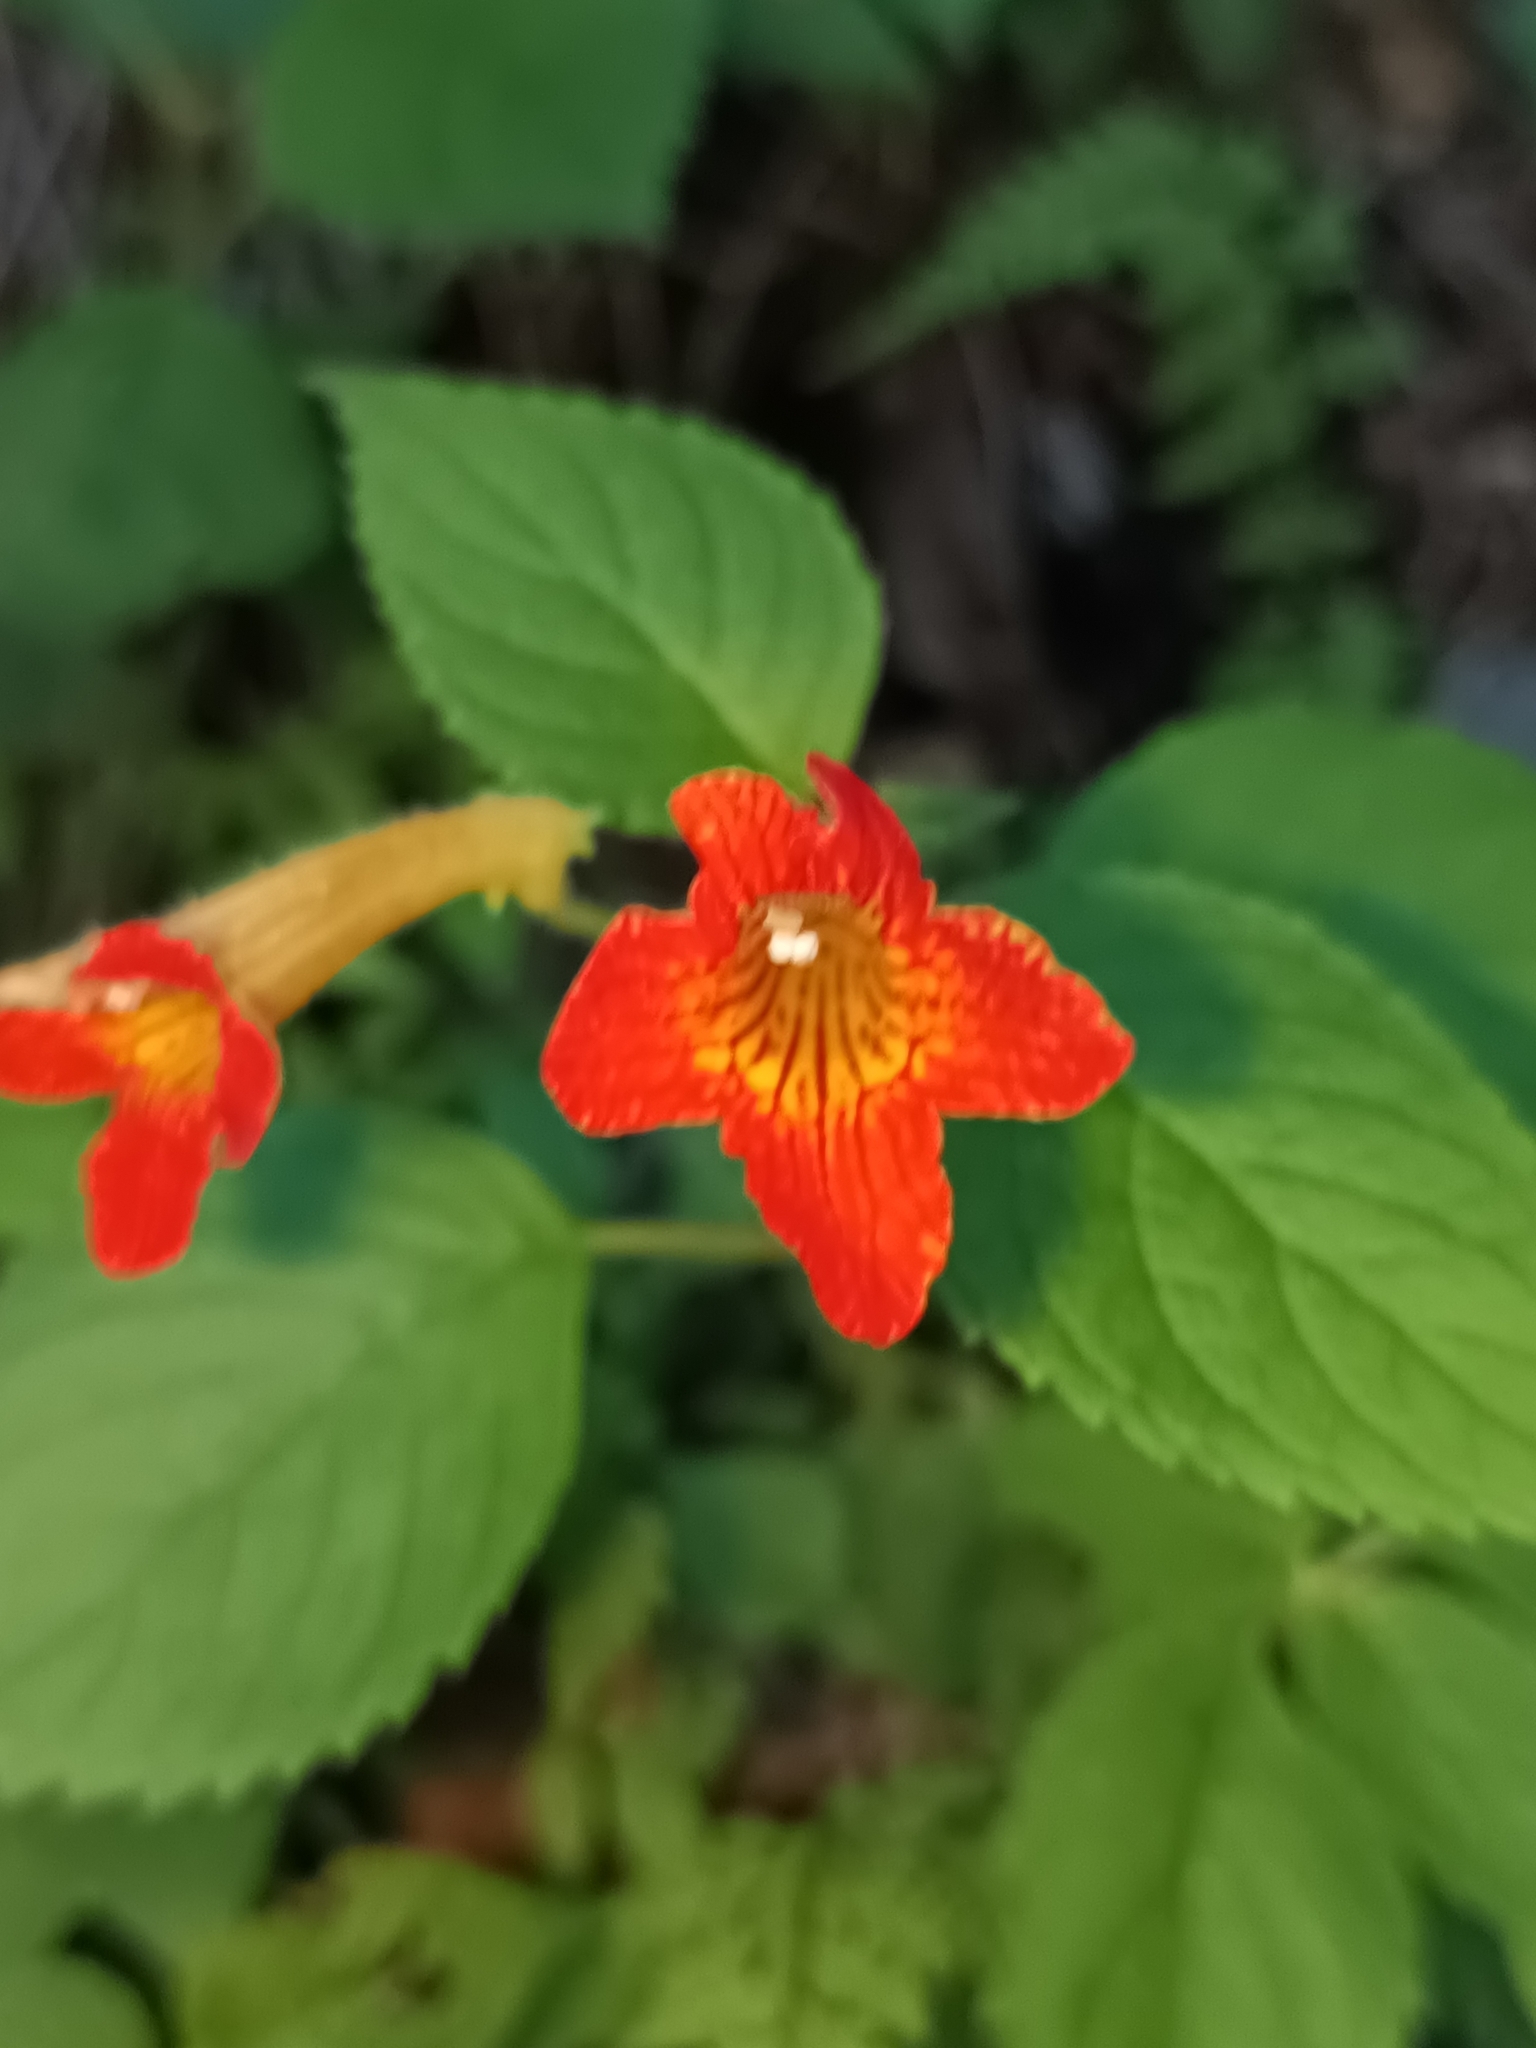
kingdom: Plantae
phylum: Tracheophyta
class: Magnoliopsida
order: Lamiales
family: Gesneriaceae
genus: Achimenes
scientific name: Achimenes antirrhina
